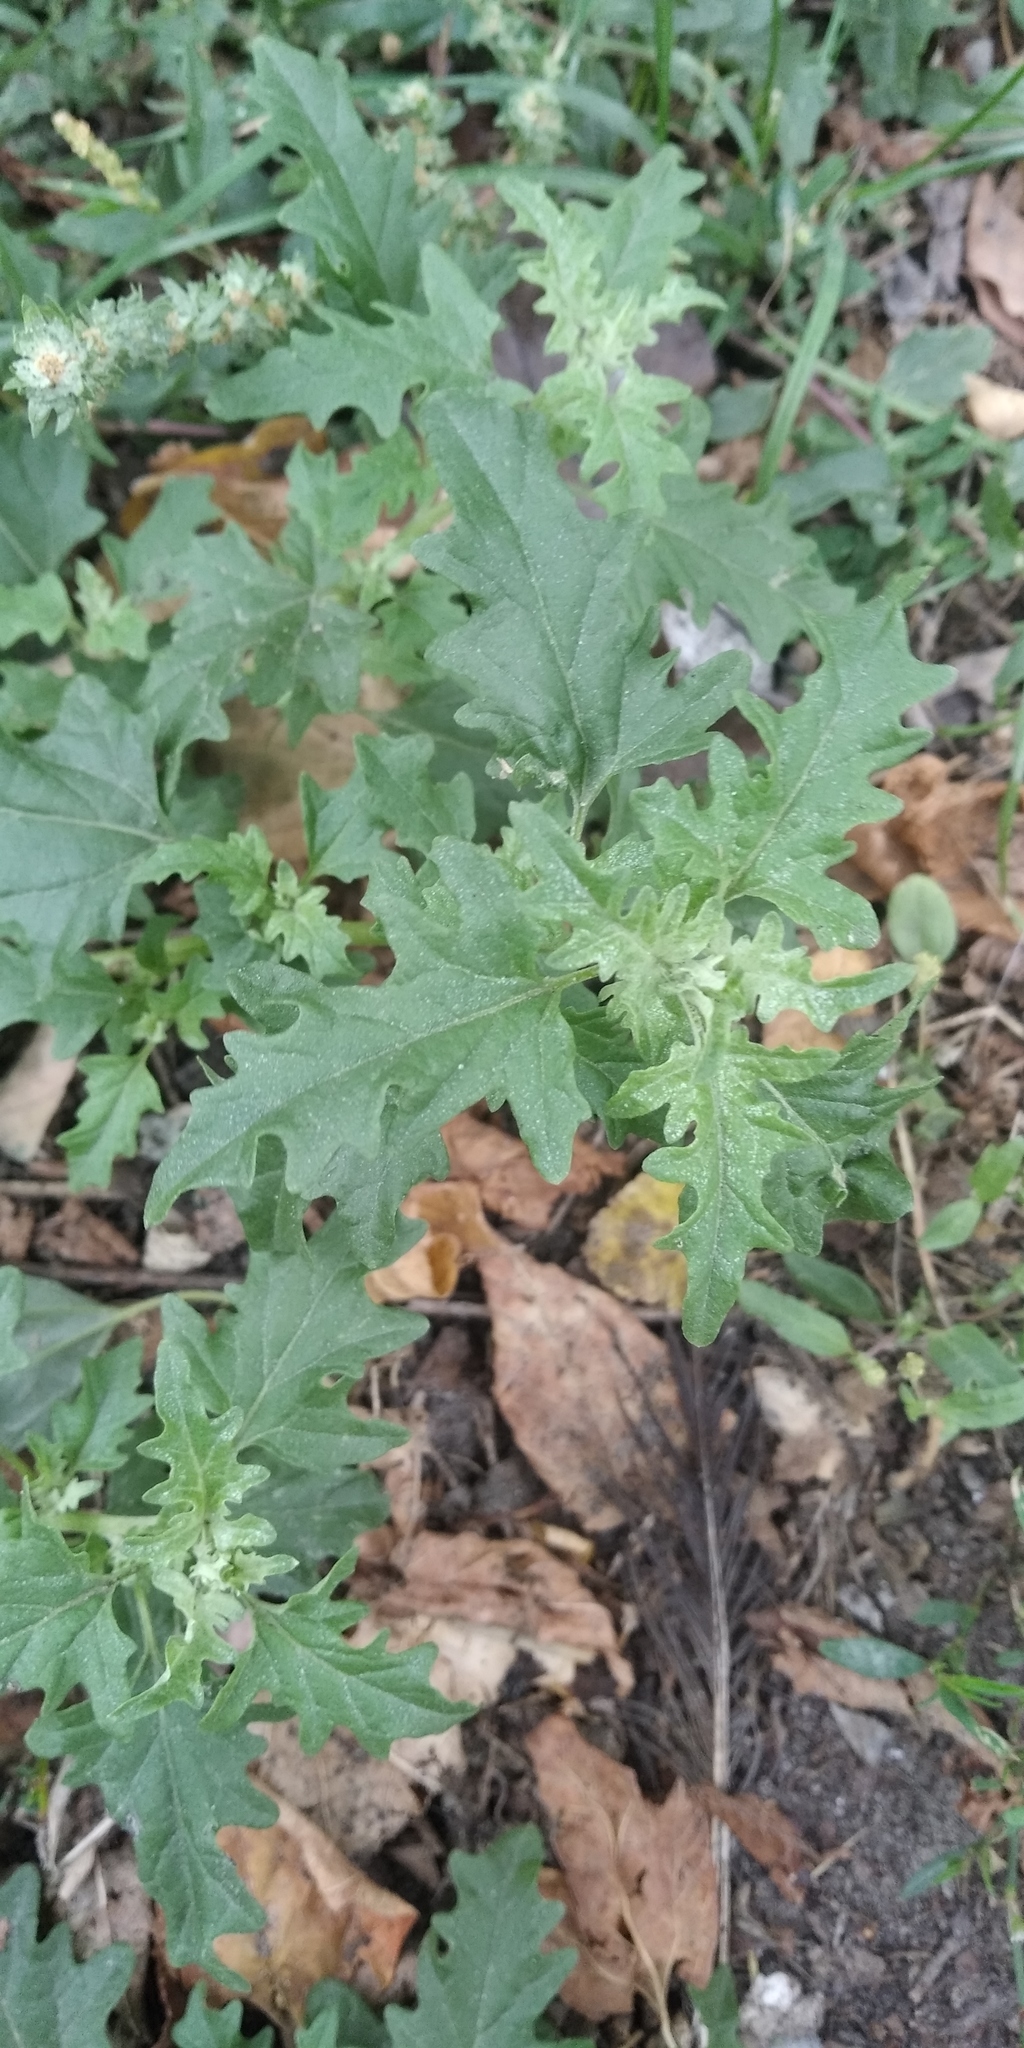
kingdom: Plantae
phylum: Tracheophyta
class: Magnoliopsida
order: Caryophyllales
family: Amaranthaceae
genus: Atriplex
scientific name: Atriplex tatarica
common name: Tatarian orache
